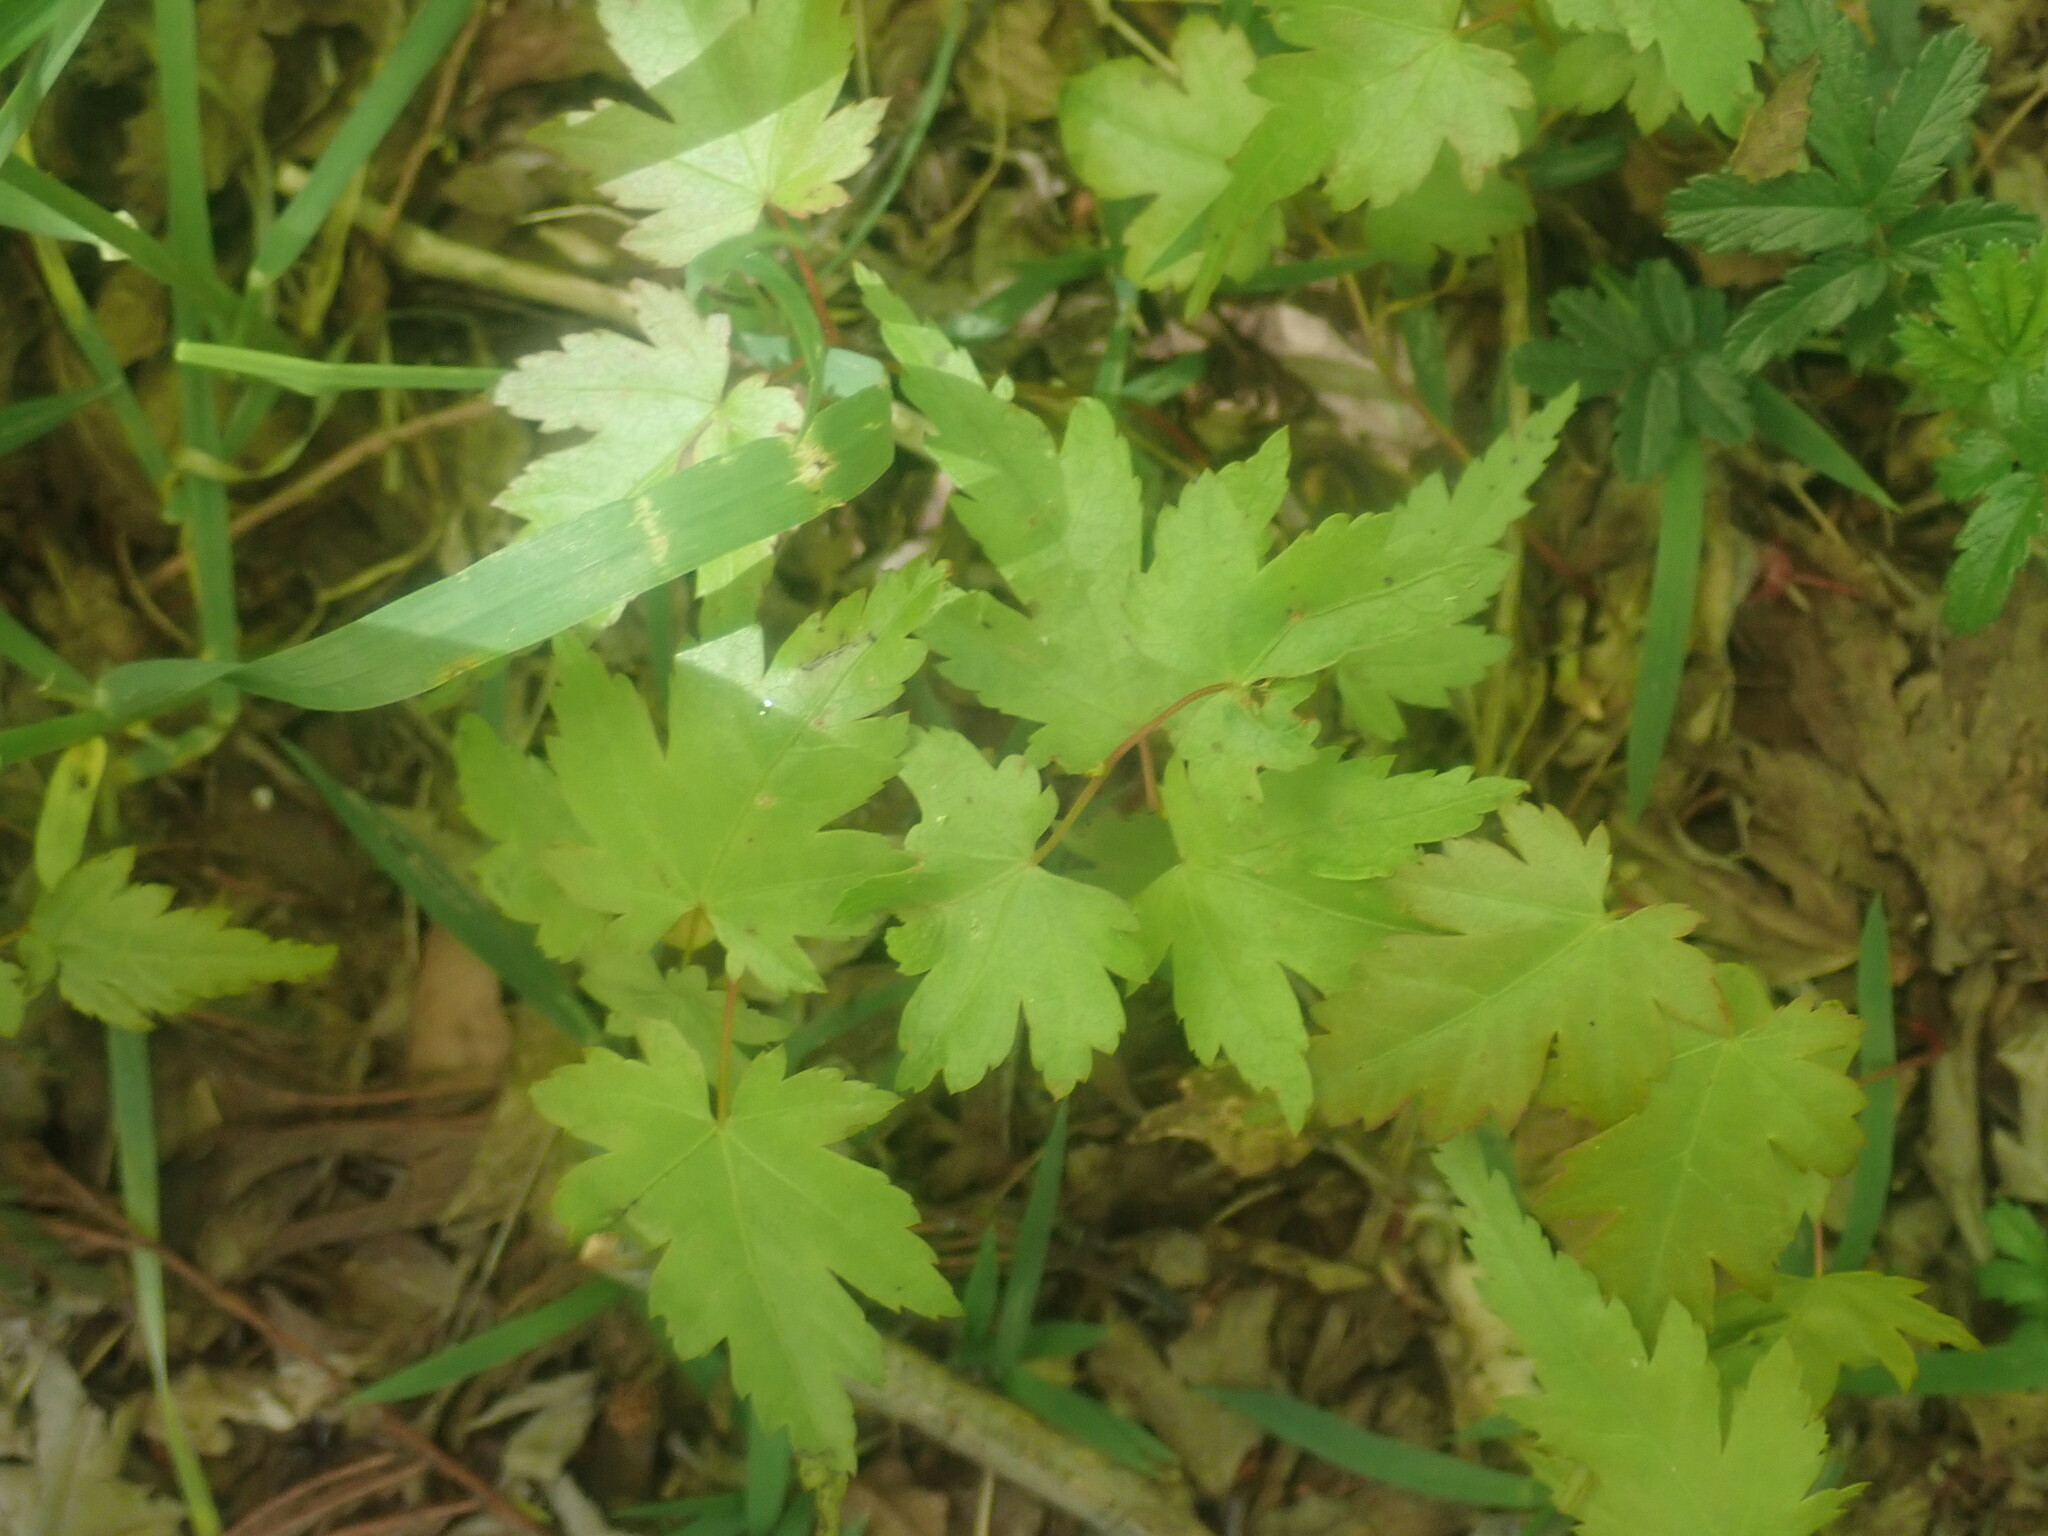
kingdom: Plantae
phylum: Tracheophyta
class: Magnoliopsida
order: Sapindales
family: Sapindaceae
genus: Acer
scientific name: Acer palmatum
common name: Japanese maple
